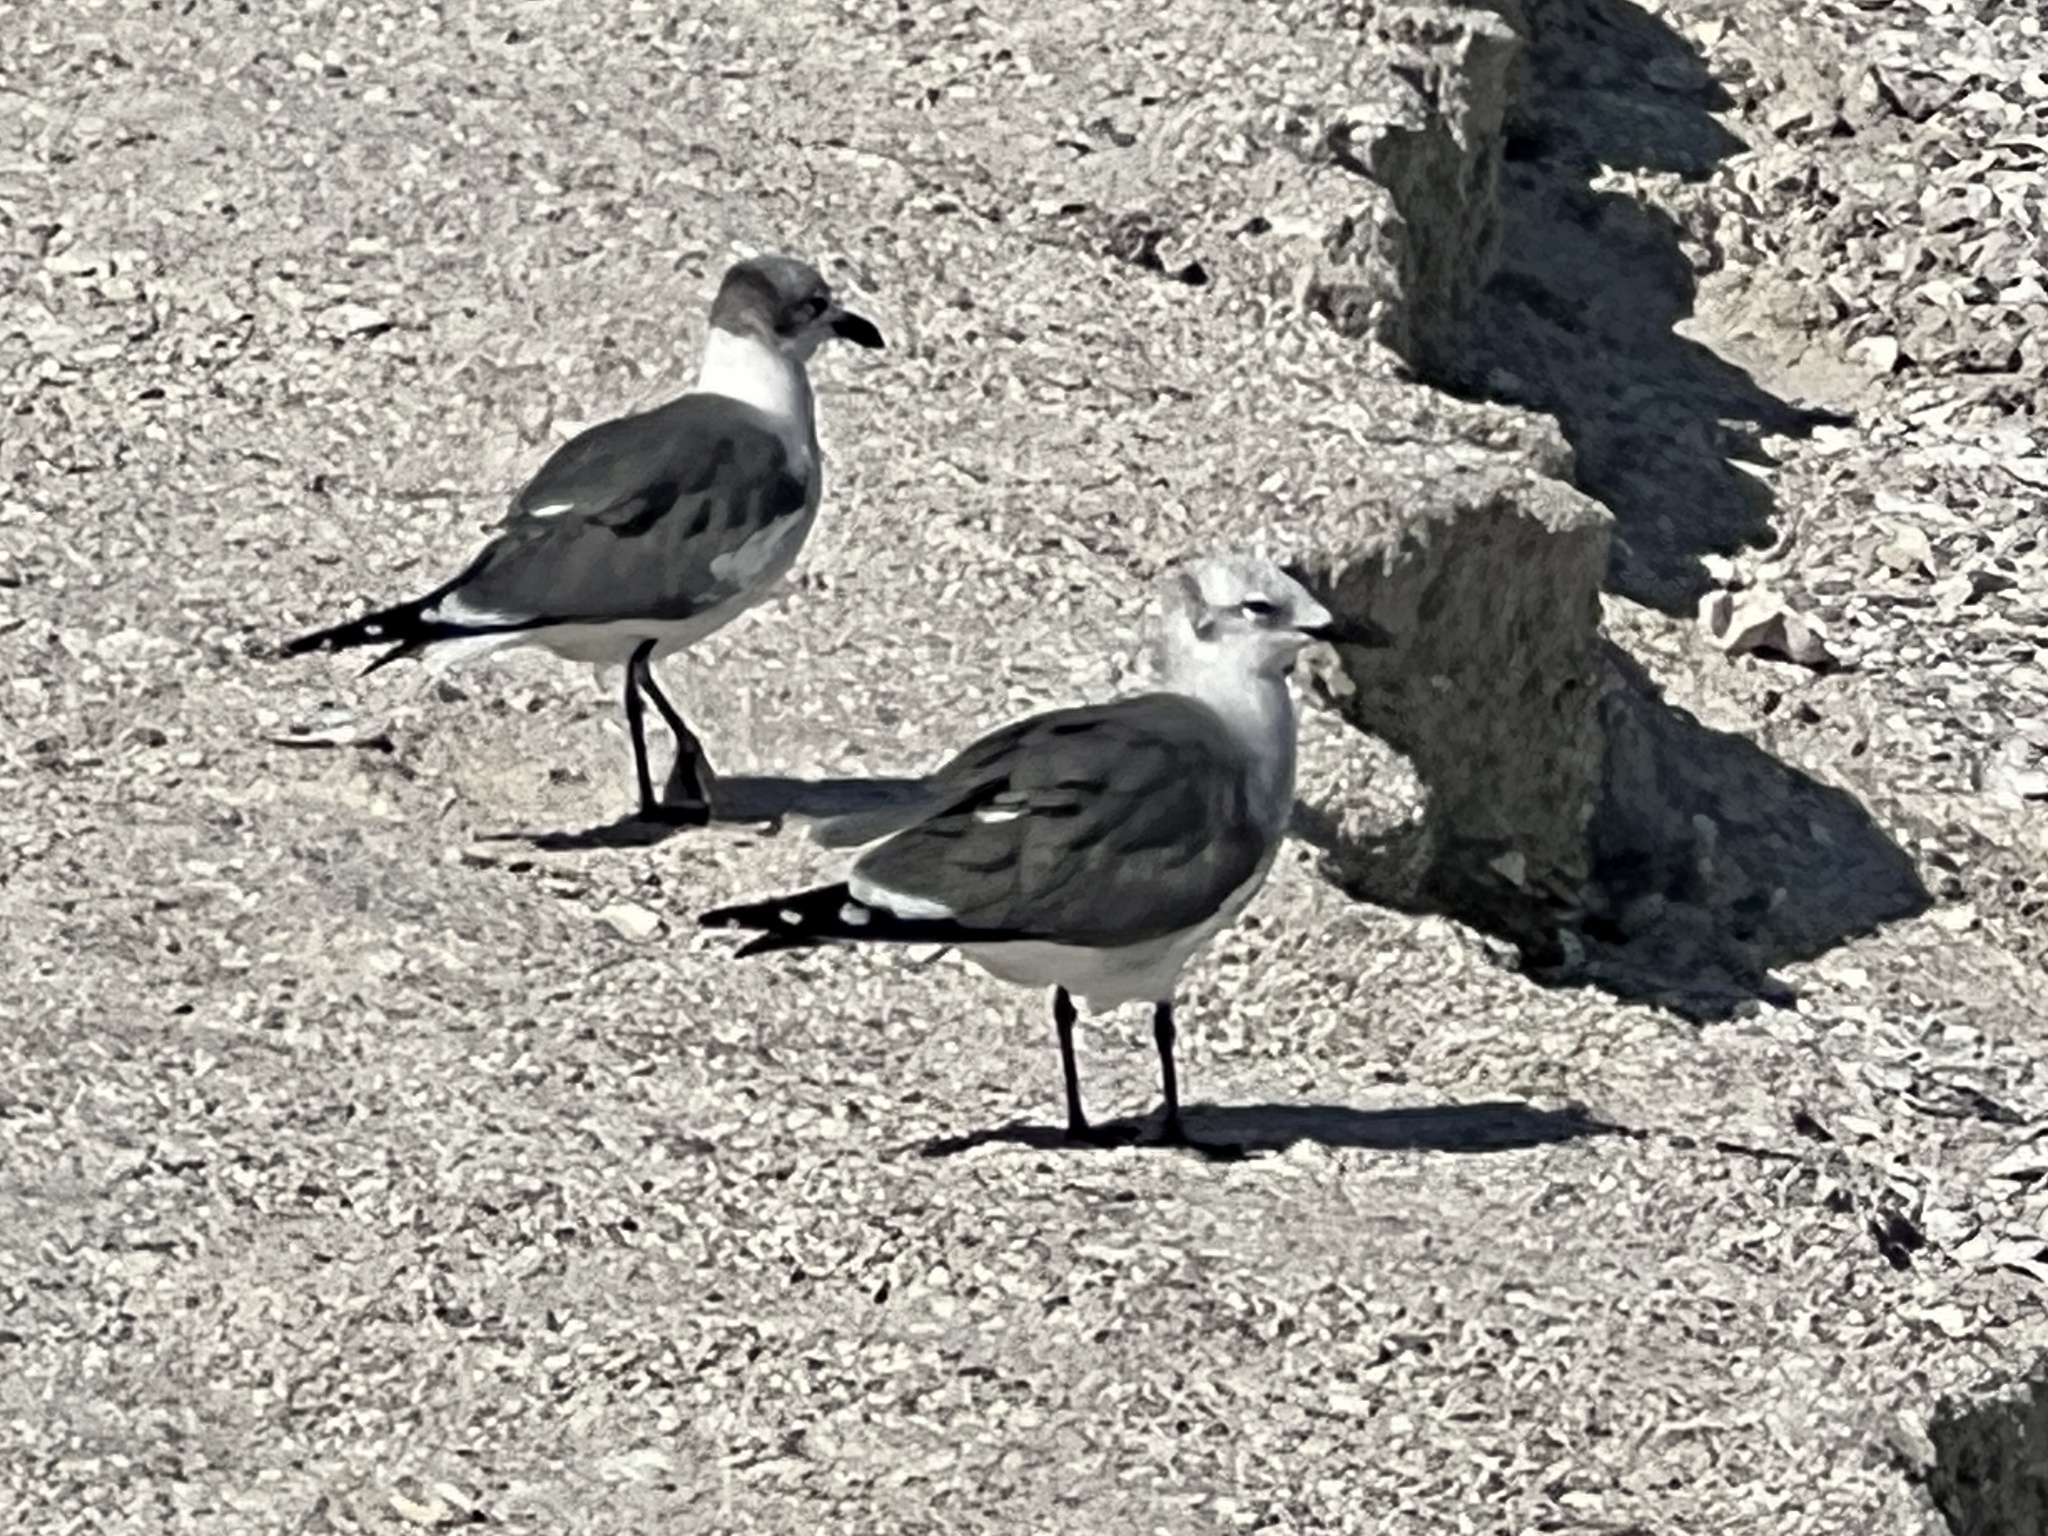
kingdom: Animalia
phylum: Chordata
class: Aves
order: Charadriiformes
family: Laridae
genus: Leucophaeus
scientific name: Leucophaeus atricilla
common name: Laughing gull
